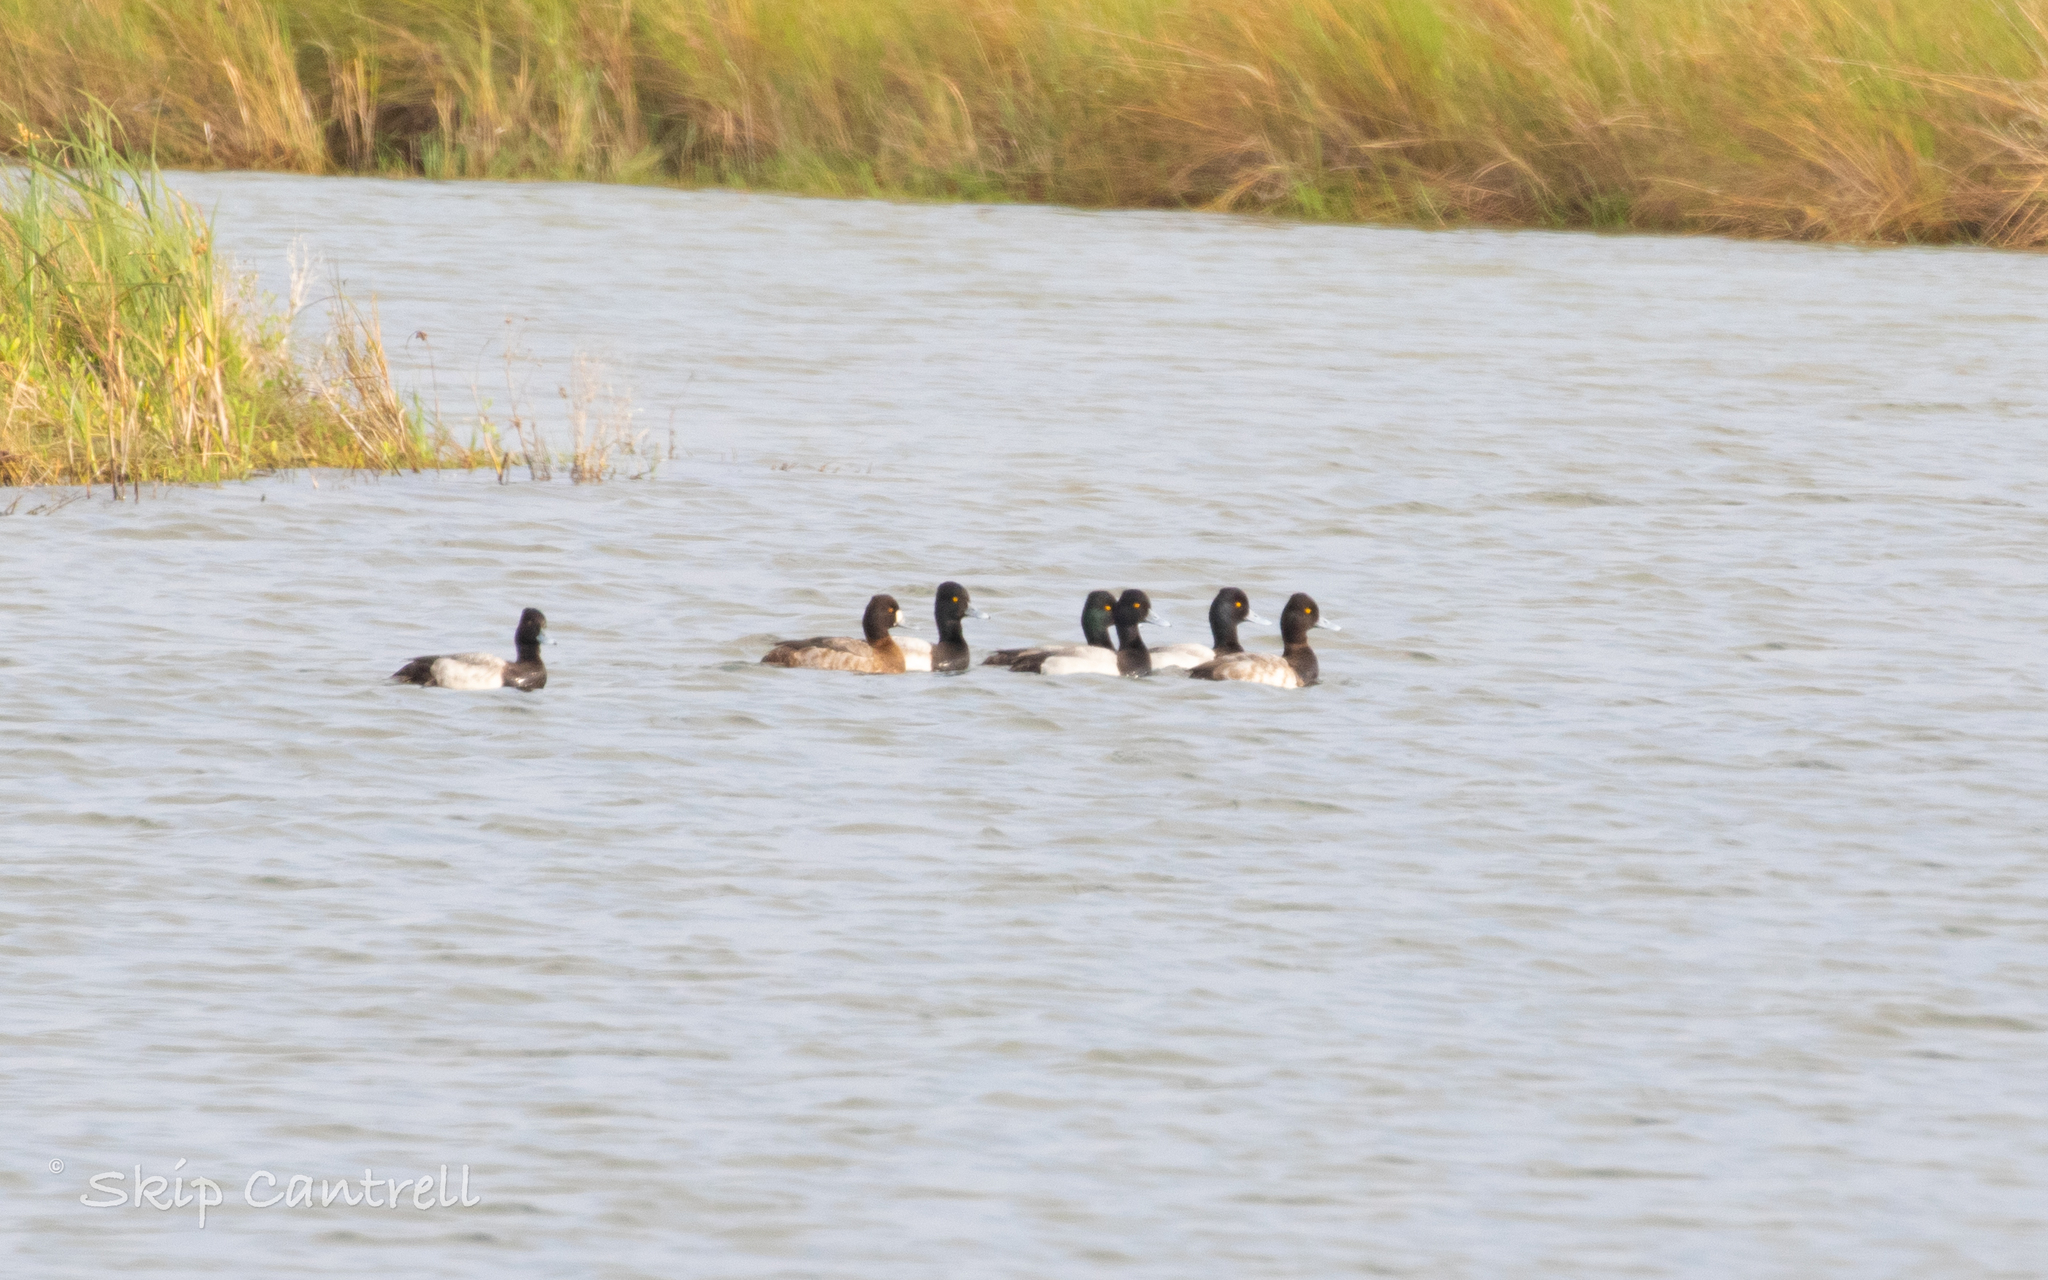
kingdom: Animalia
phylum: Chordata
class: Aves
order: Anseriformes
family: Anatidae
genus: Aythya
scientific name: Aythya affinis
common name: Lesser scaup
